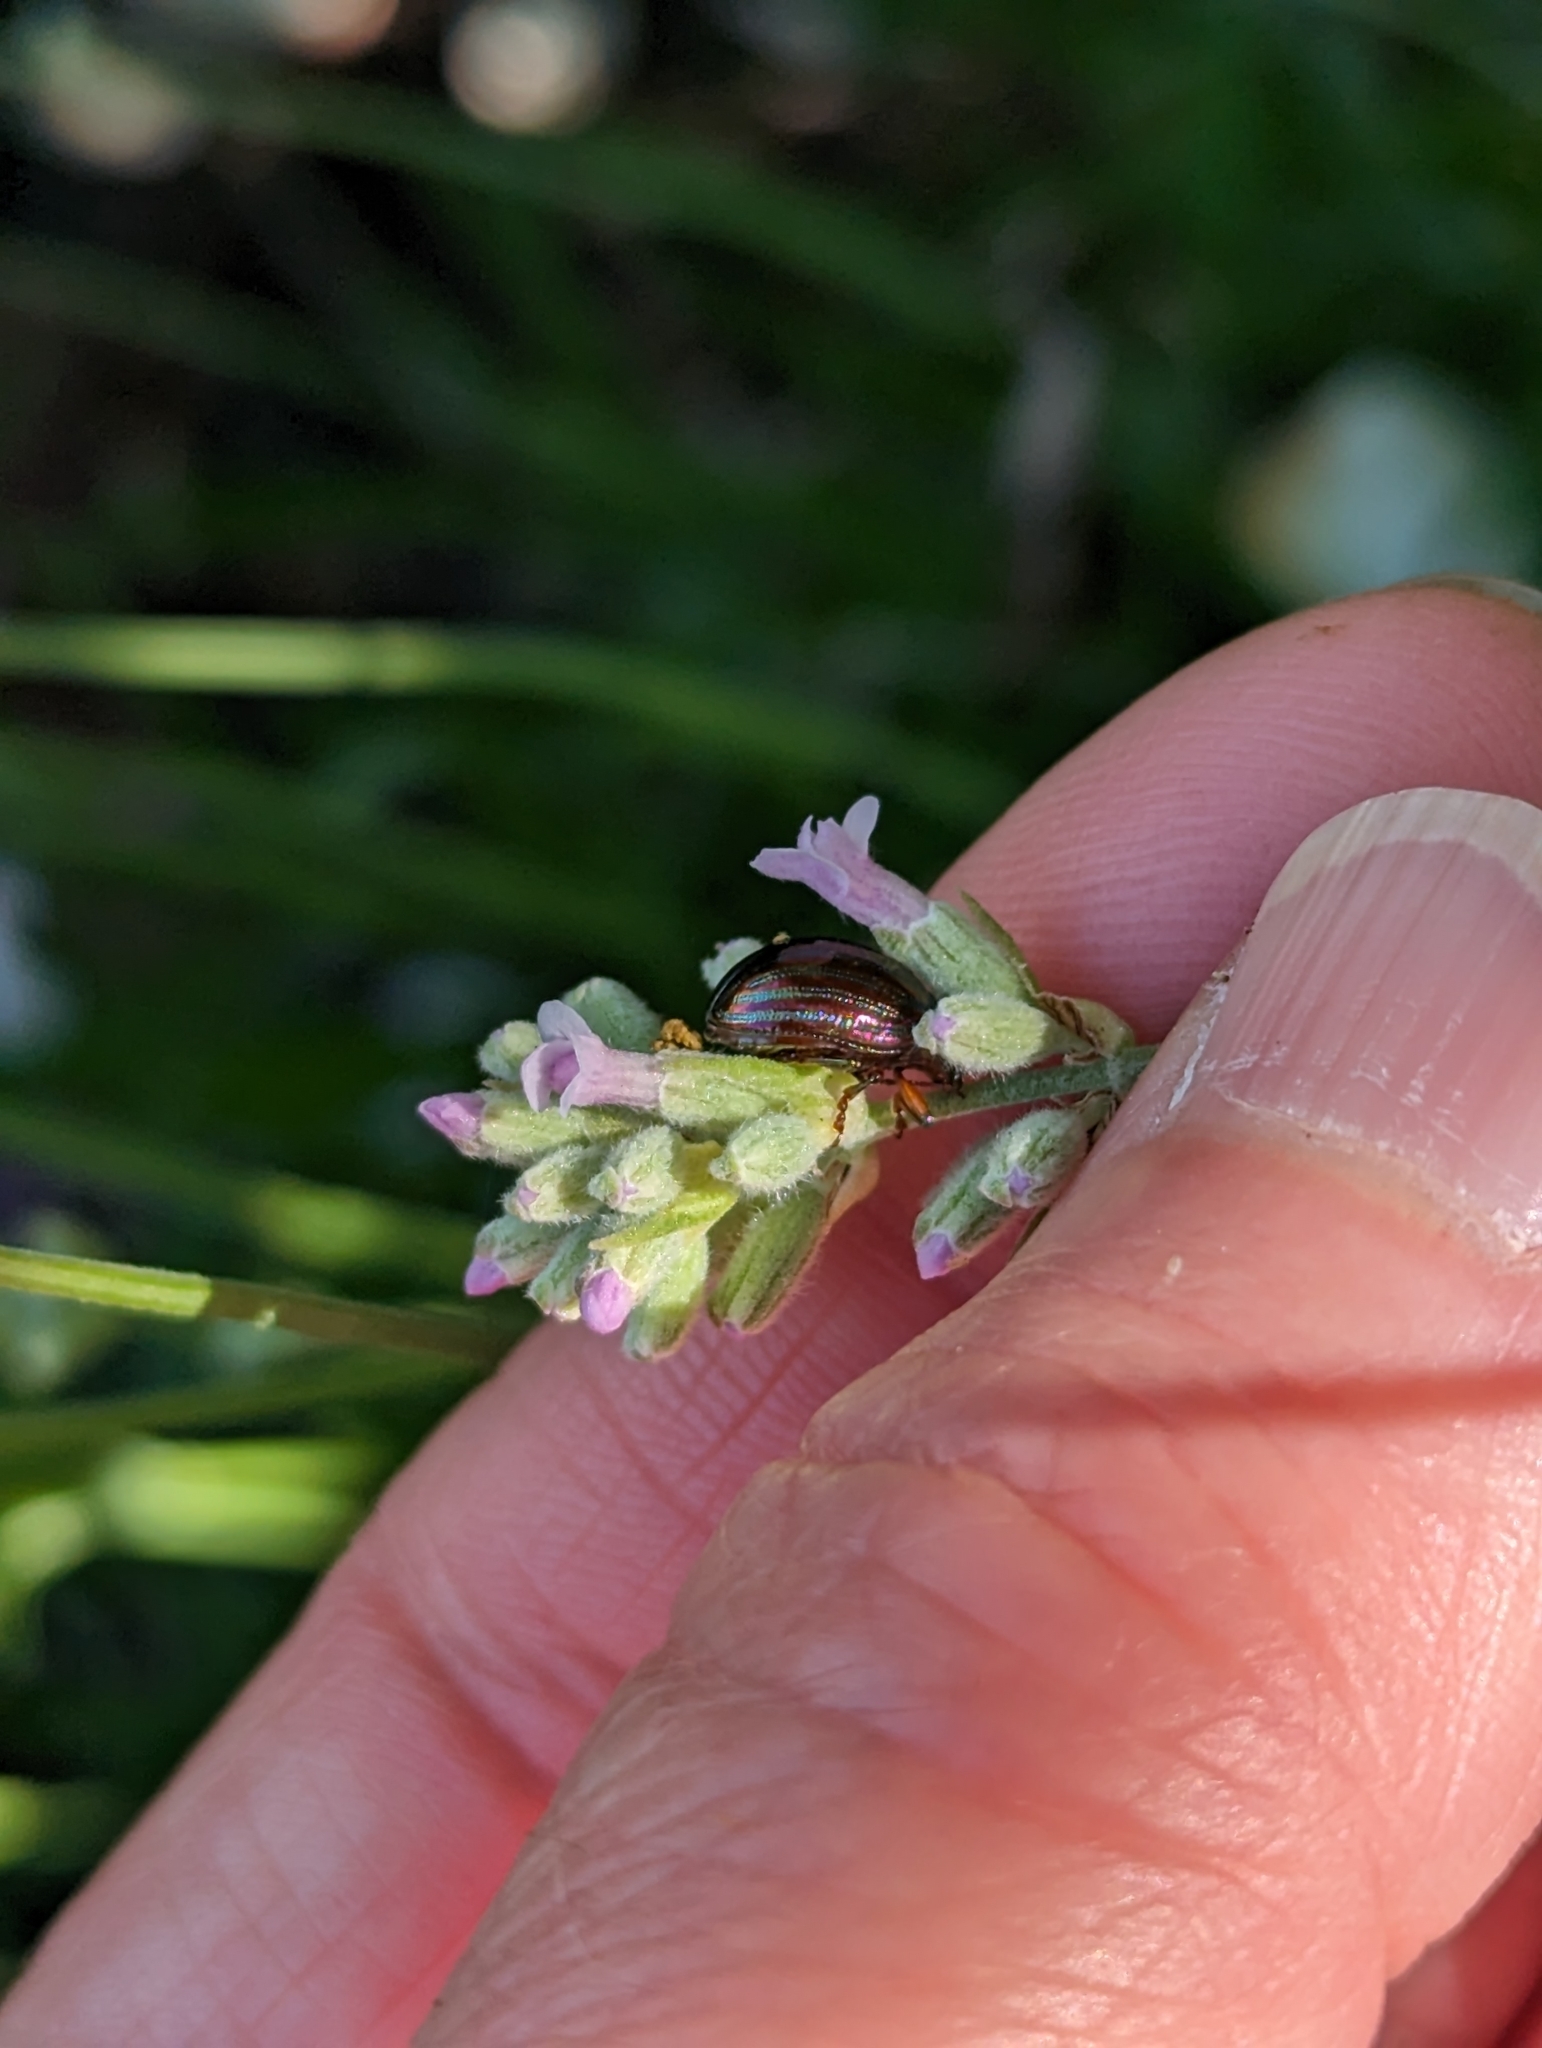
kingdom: Animalia
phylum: Arthropoda
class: Insecta
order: Coleoptera
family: Chrysomelidae
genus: Chrysolina
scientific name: Chrysolina americana
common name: Rosemary beetle
